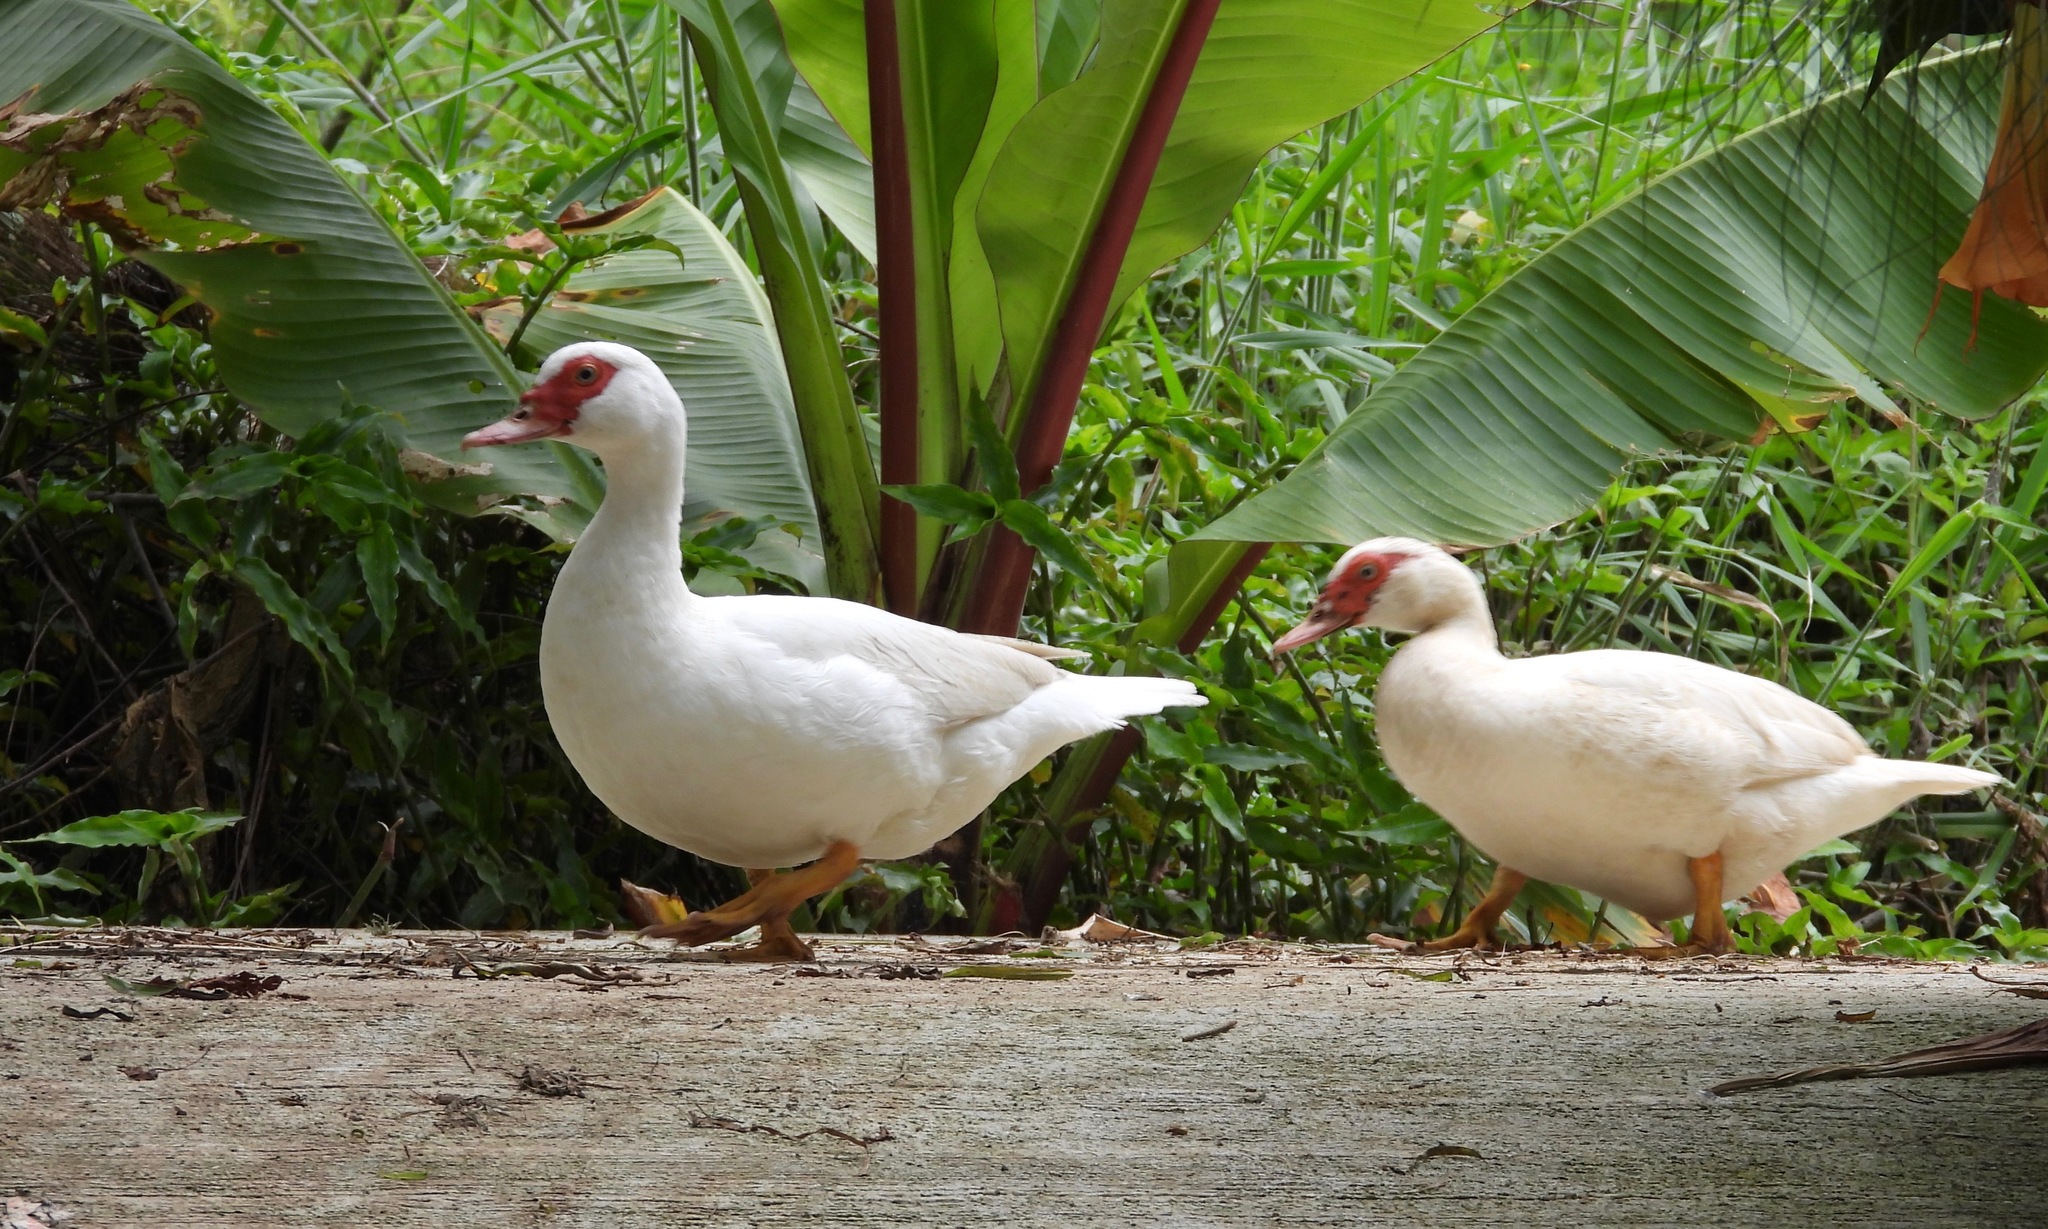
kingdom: Animalia
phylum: Chordata
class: Aves
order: Anseriformes
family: Anatidae
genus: Cairina
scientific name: Cairina moschata
